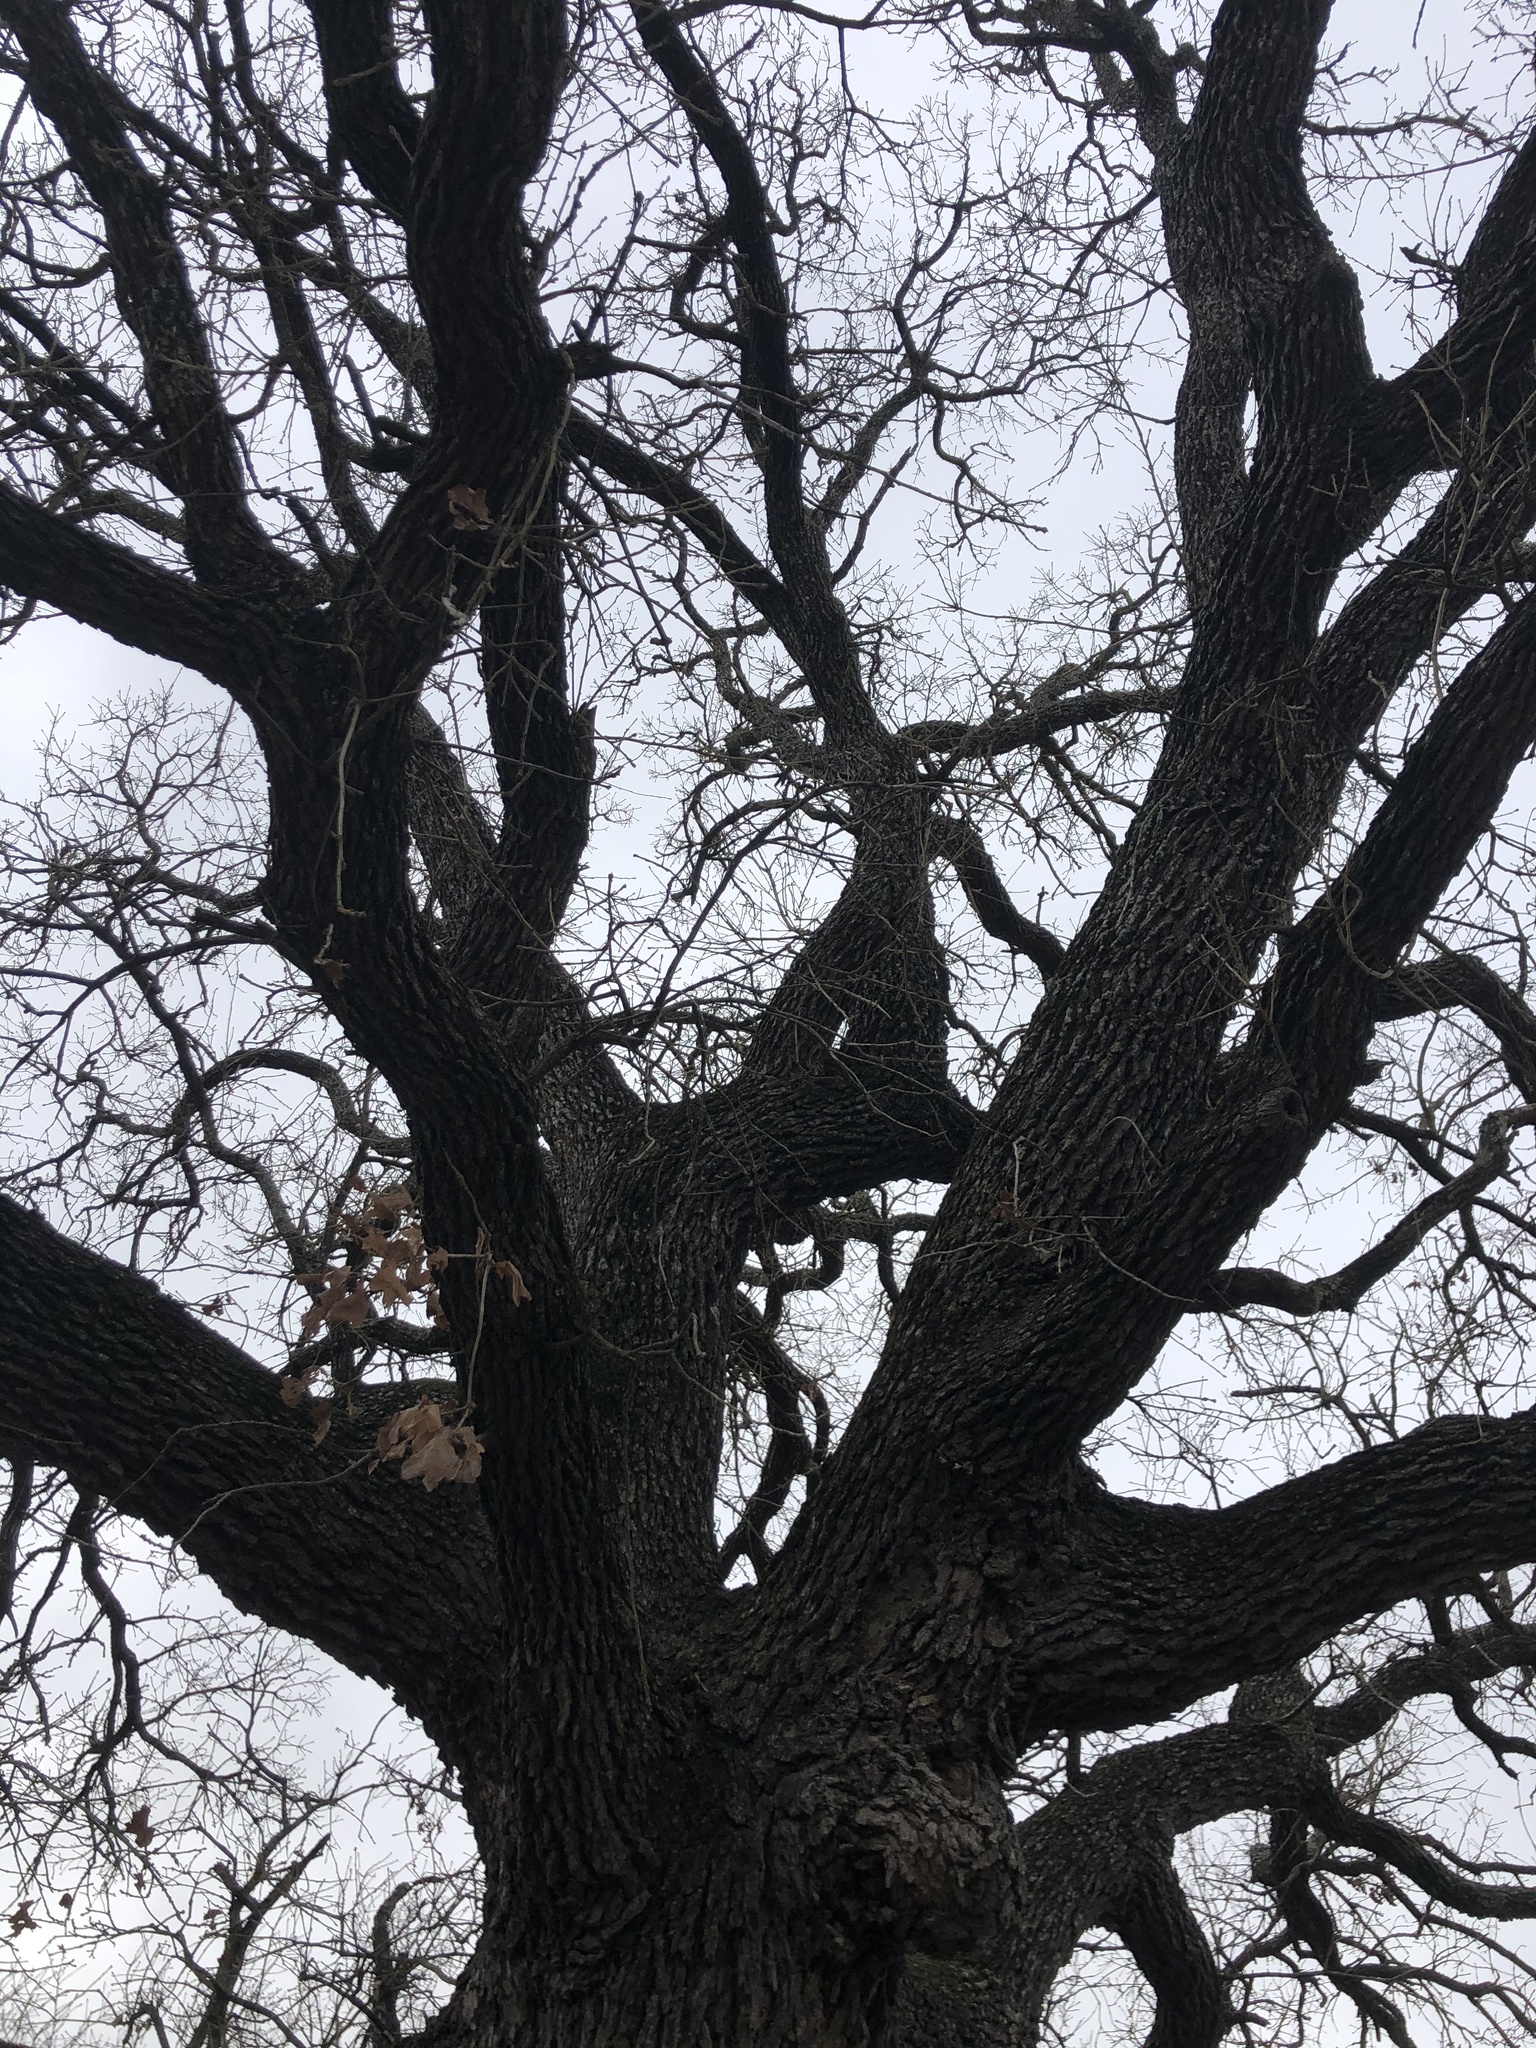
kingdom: Plantae
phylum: Tracheophyta
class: Magnoliopsida
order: Fagales
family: Fagaceae
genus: Quercus
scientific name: Quercus stellata
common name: Post oak
